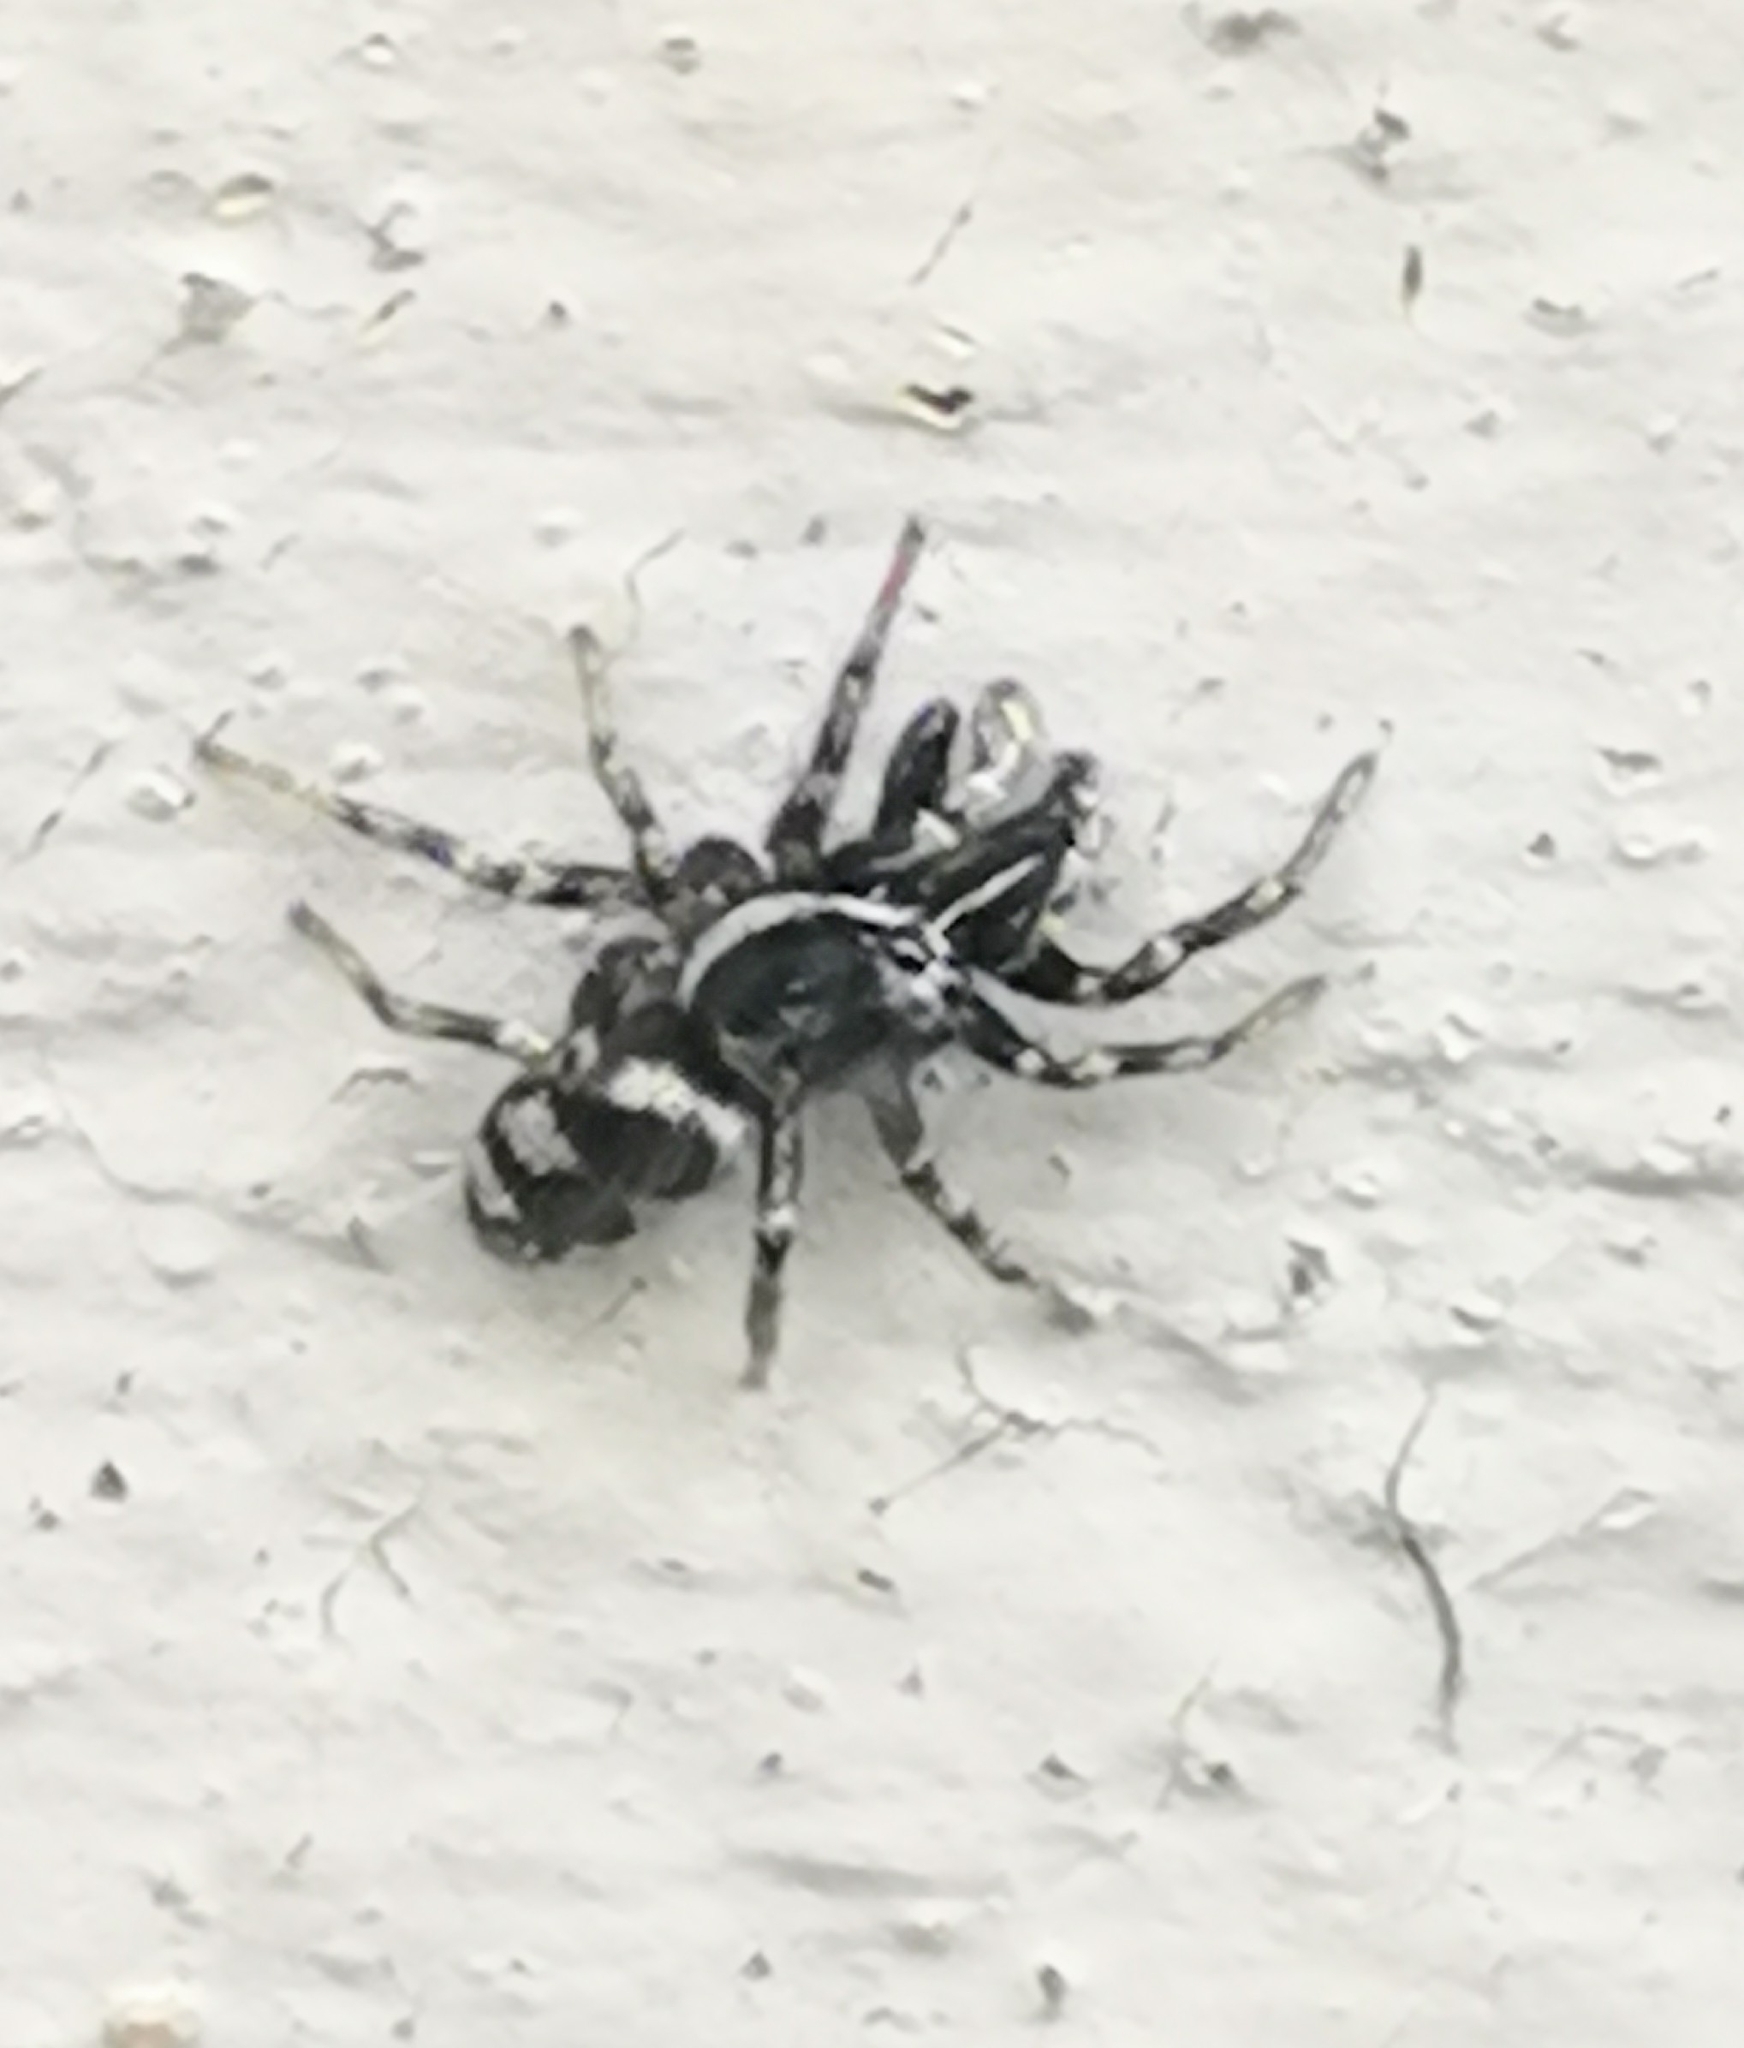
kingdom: Animalia
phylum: Arthropoda
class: Arachnida
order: Araneae
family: Salticidae
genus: Salticus
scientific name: Salticus cingulatus
